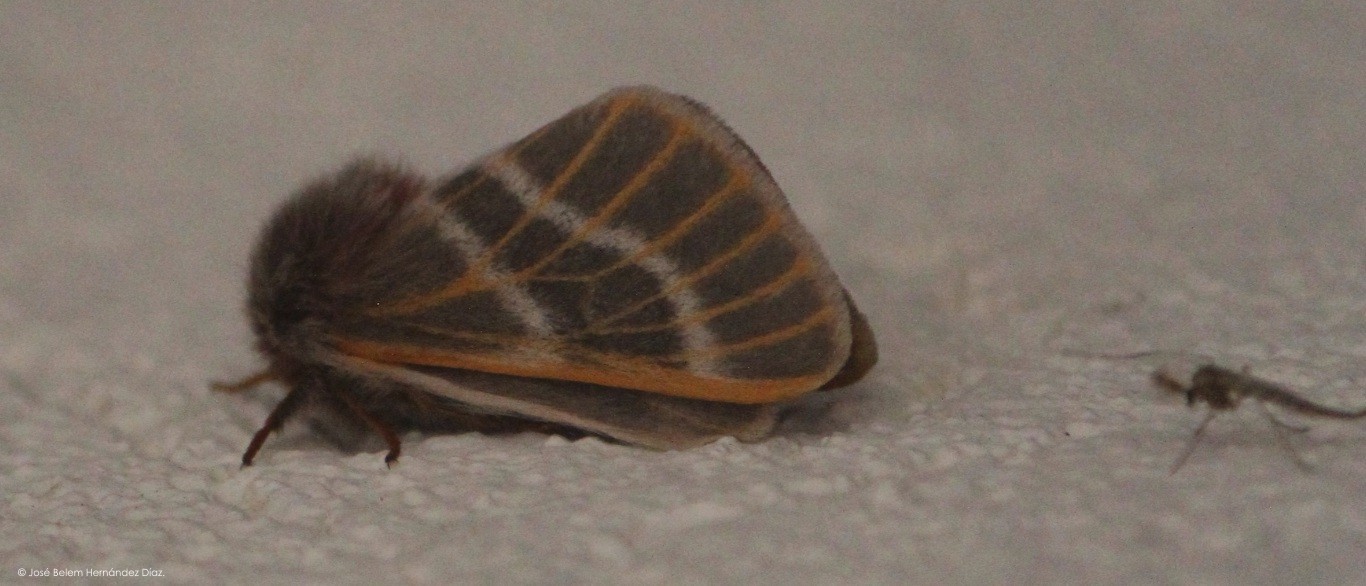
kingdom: Animalia
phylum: Arthropoda
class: Insecta
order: Lepidoptera
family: Saturniidae
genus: Hemileuca
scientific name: Hemileuca rubridorsa
